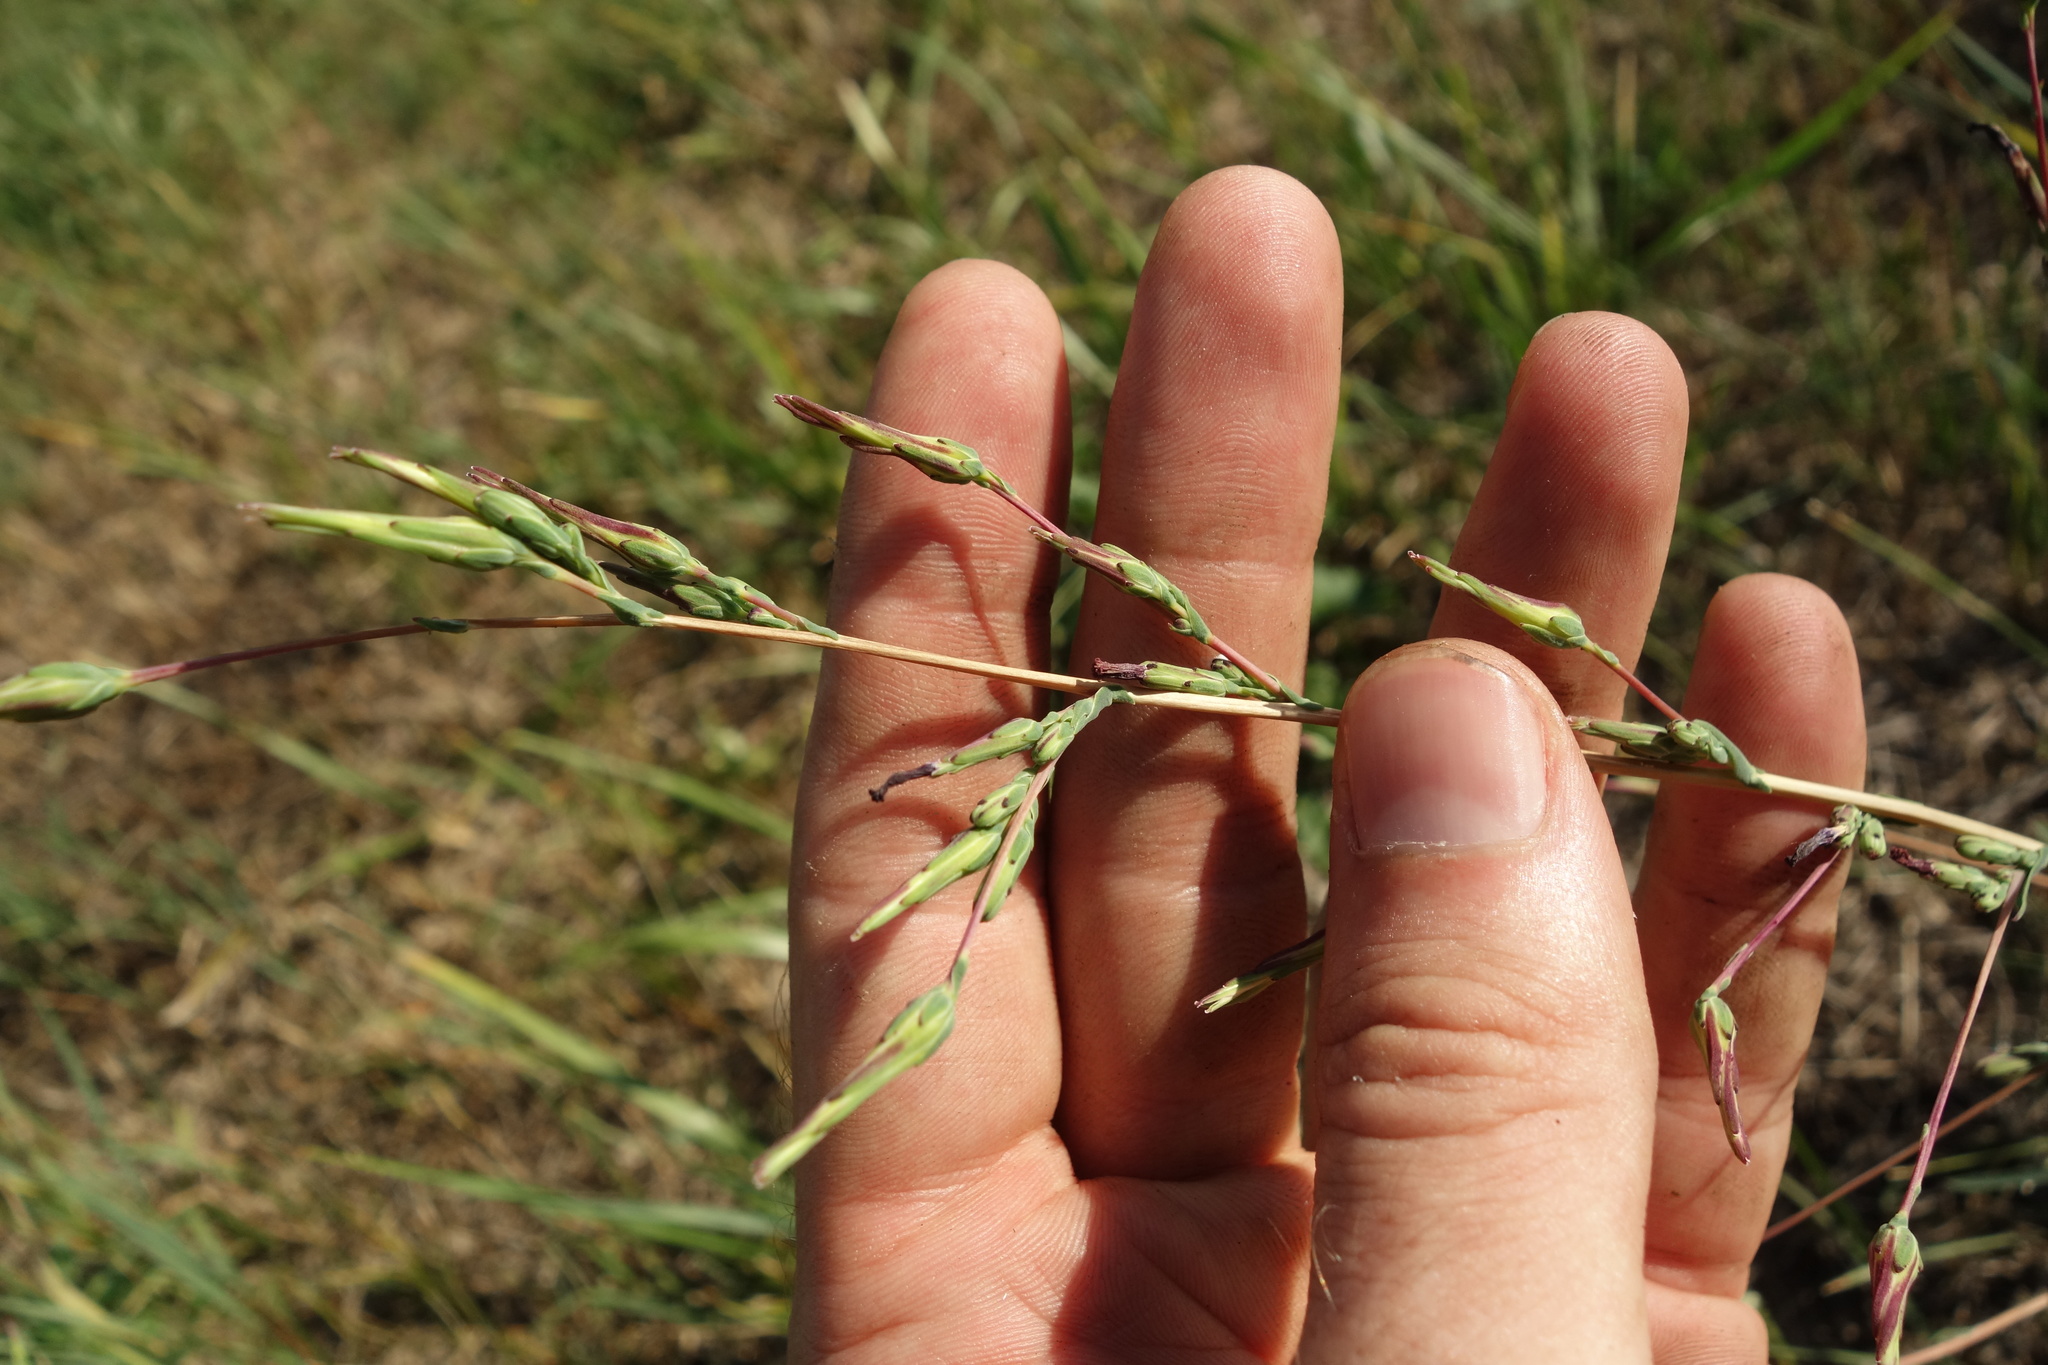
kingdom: Plantae
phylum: Tracheophyta
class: Magnoliopsida
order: Asterales
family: Asteraceae
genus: Lactuca
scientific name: Lactuca saligna
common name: Wild lettuce
